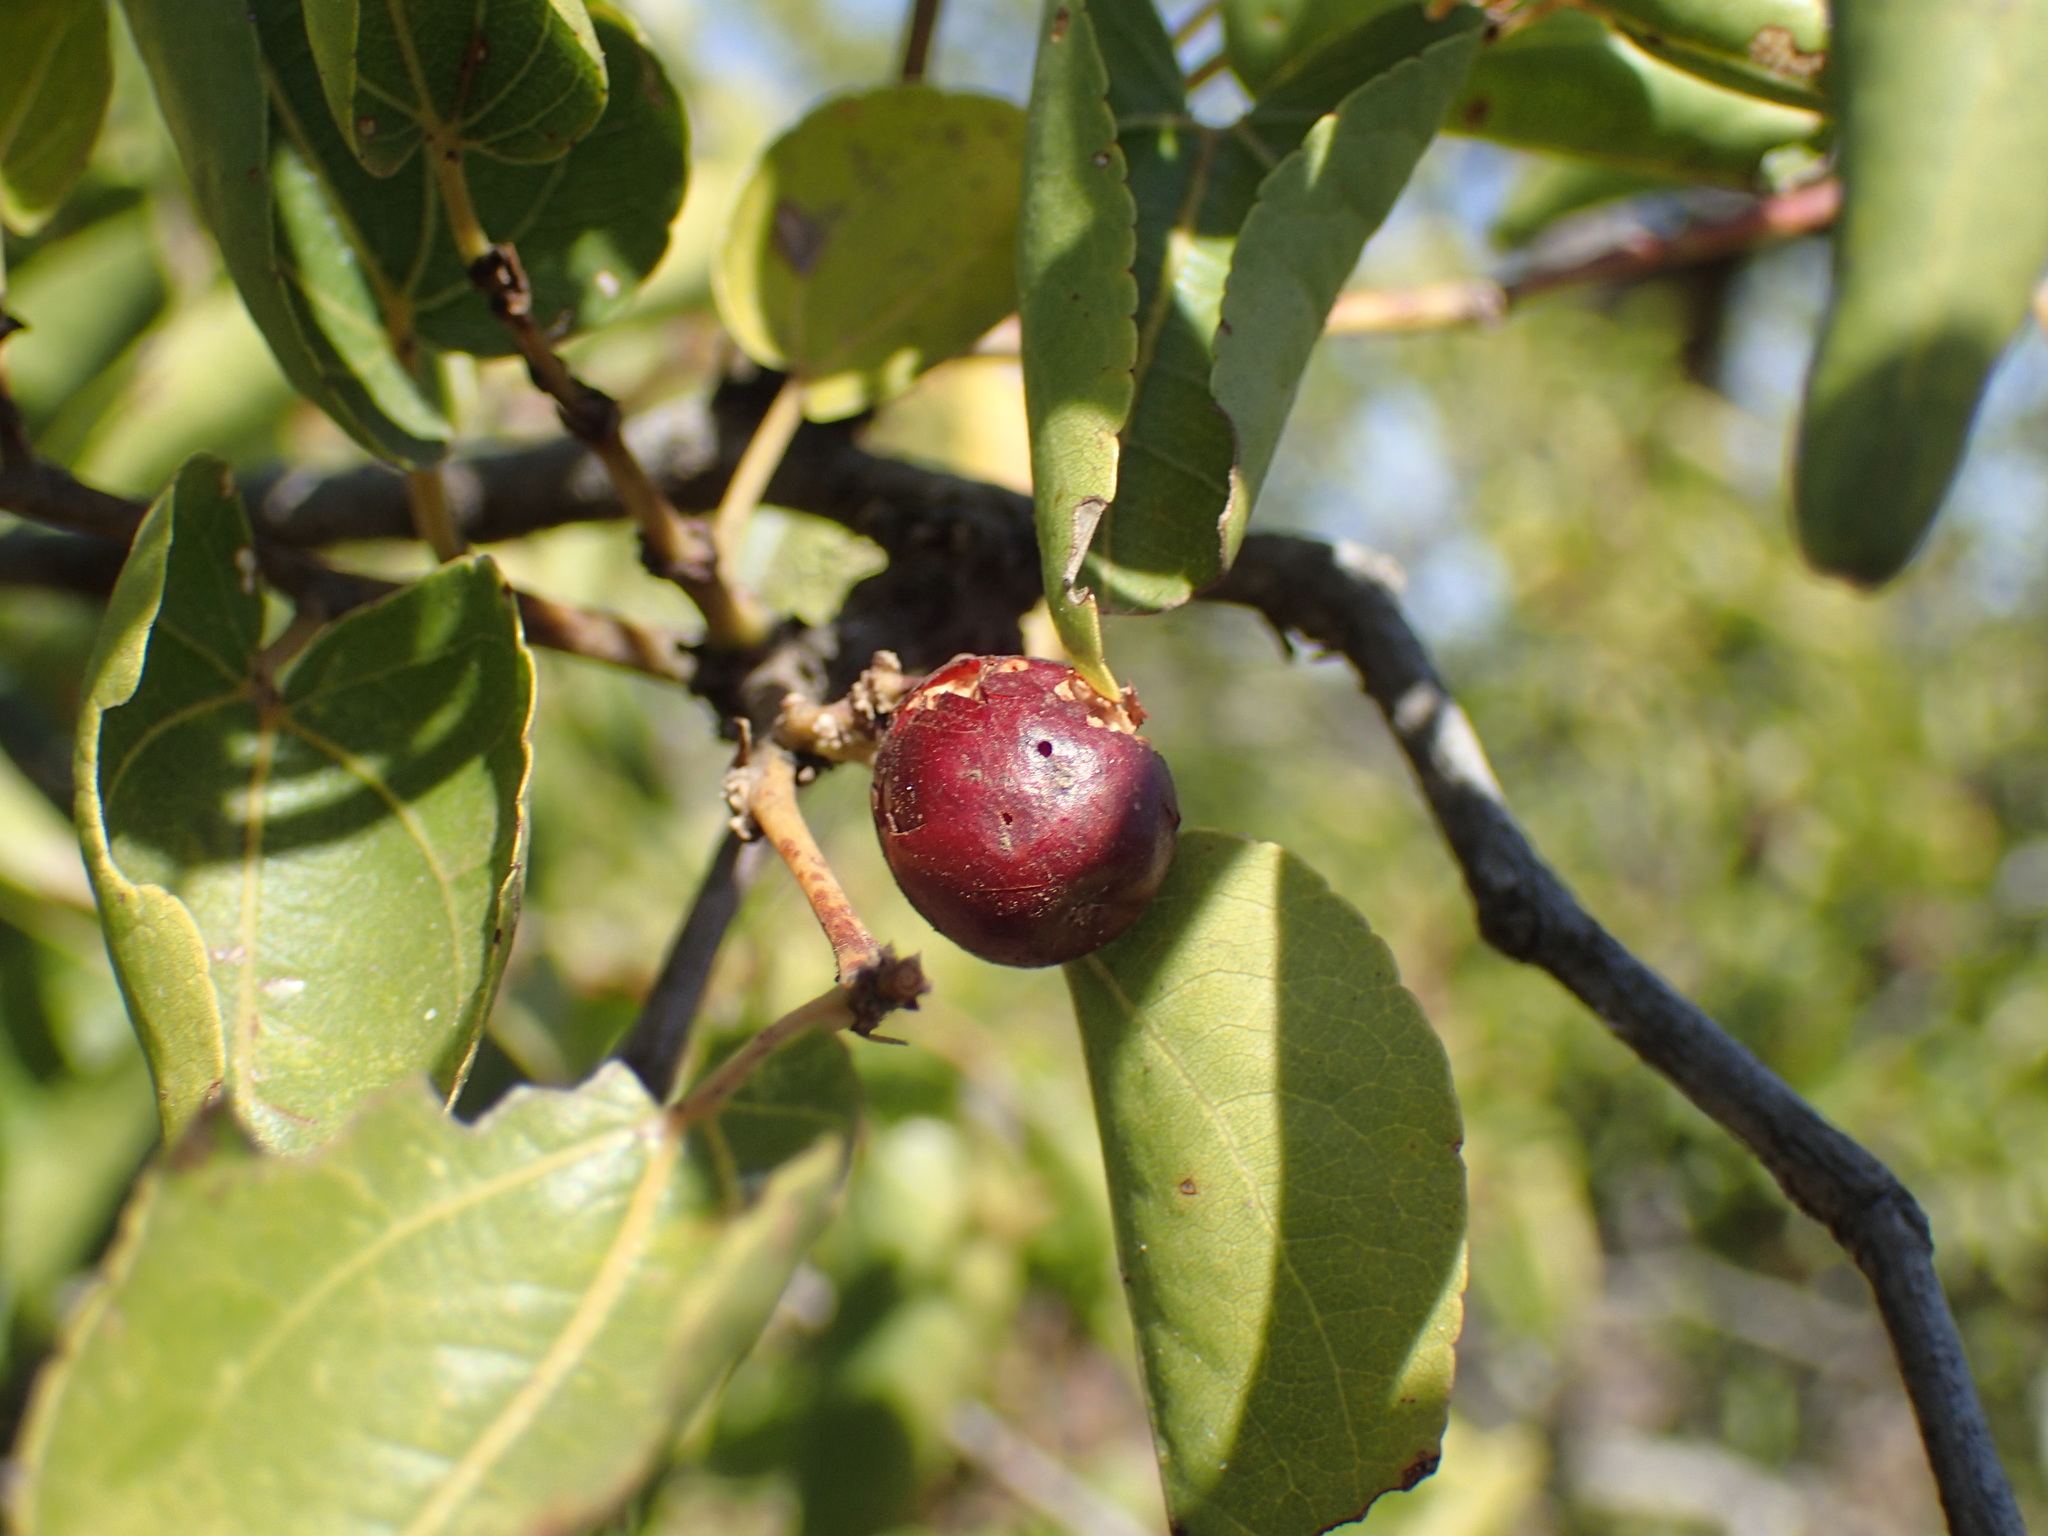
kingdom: Plantae
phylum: Tracheophyta
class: Magnoliopsida
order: Rosales
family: Rhamnaceae
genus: Ziziphus
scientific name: Ziziphus mucronata
